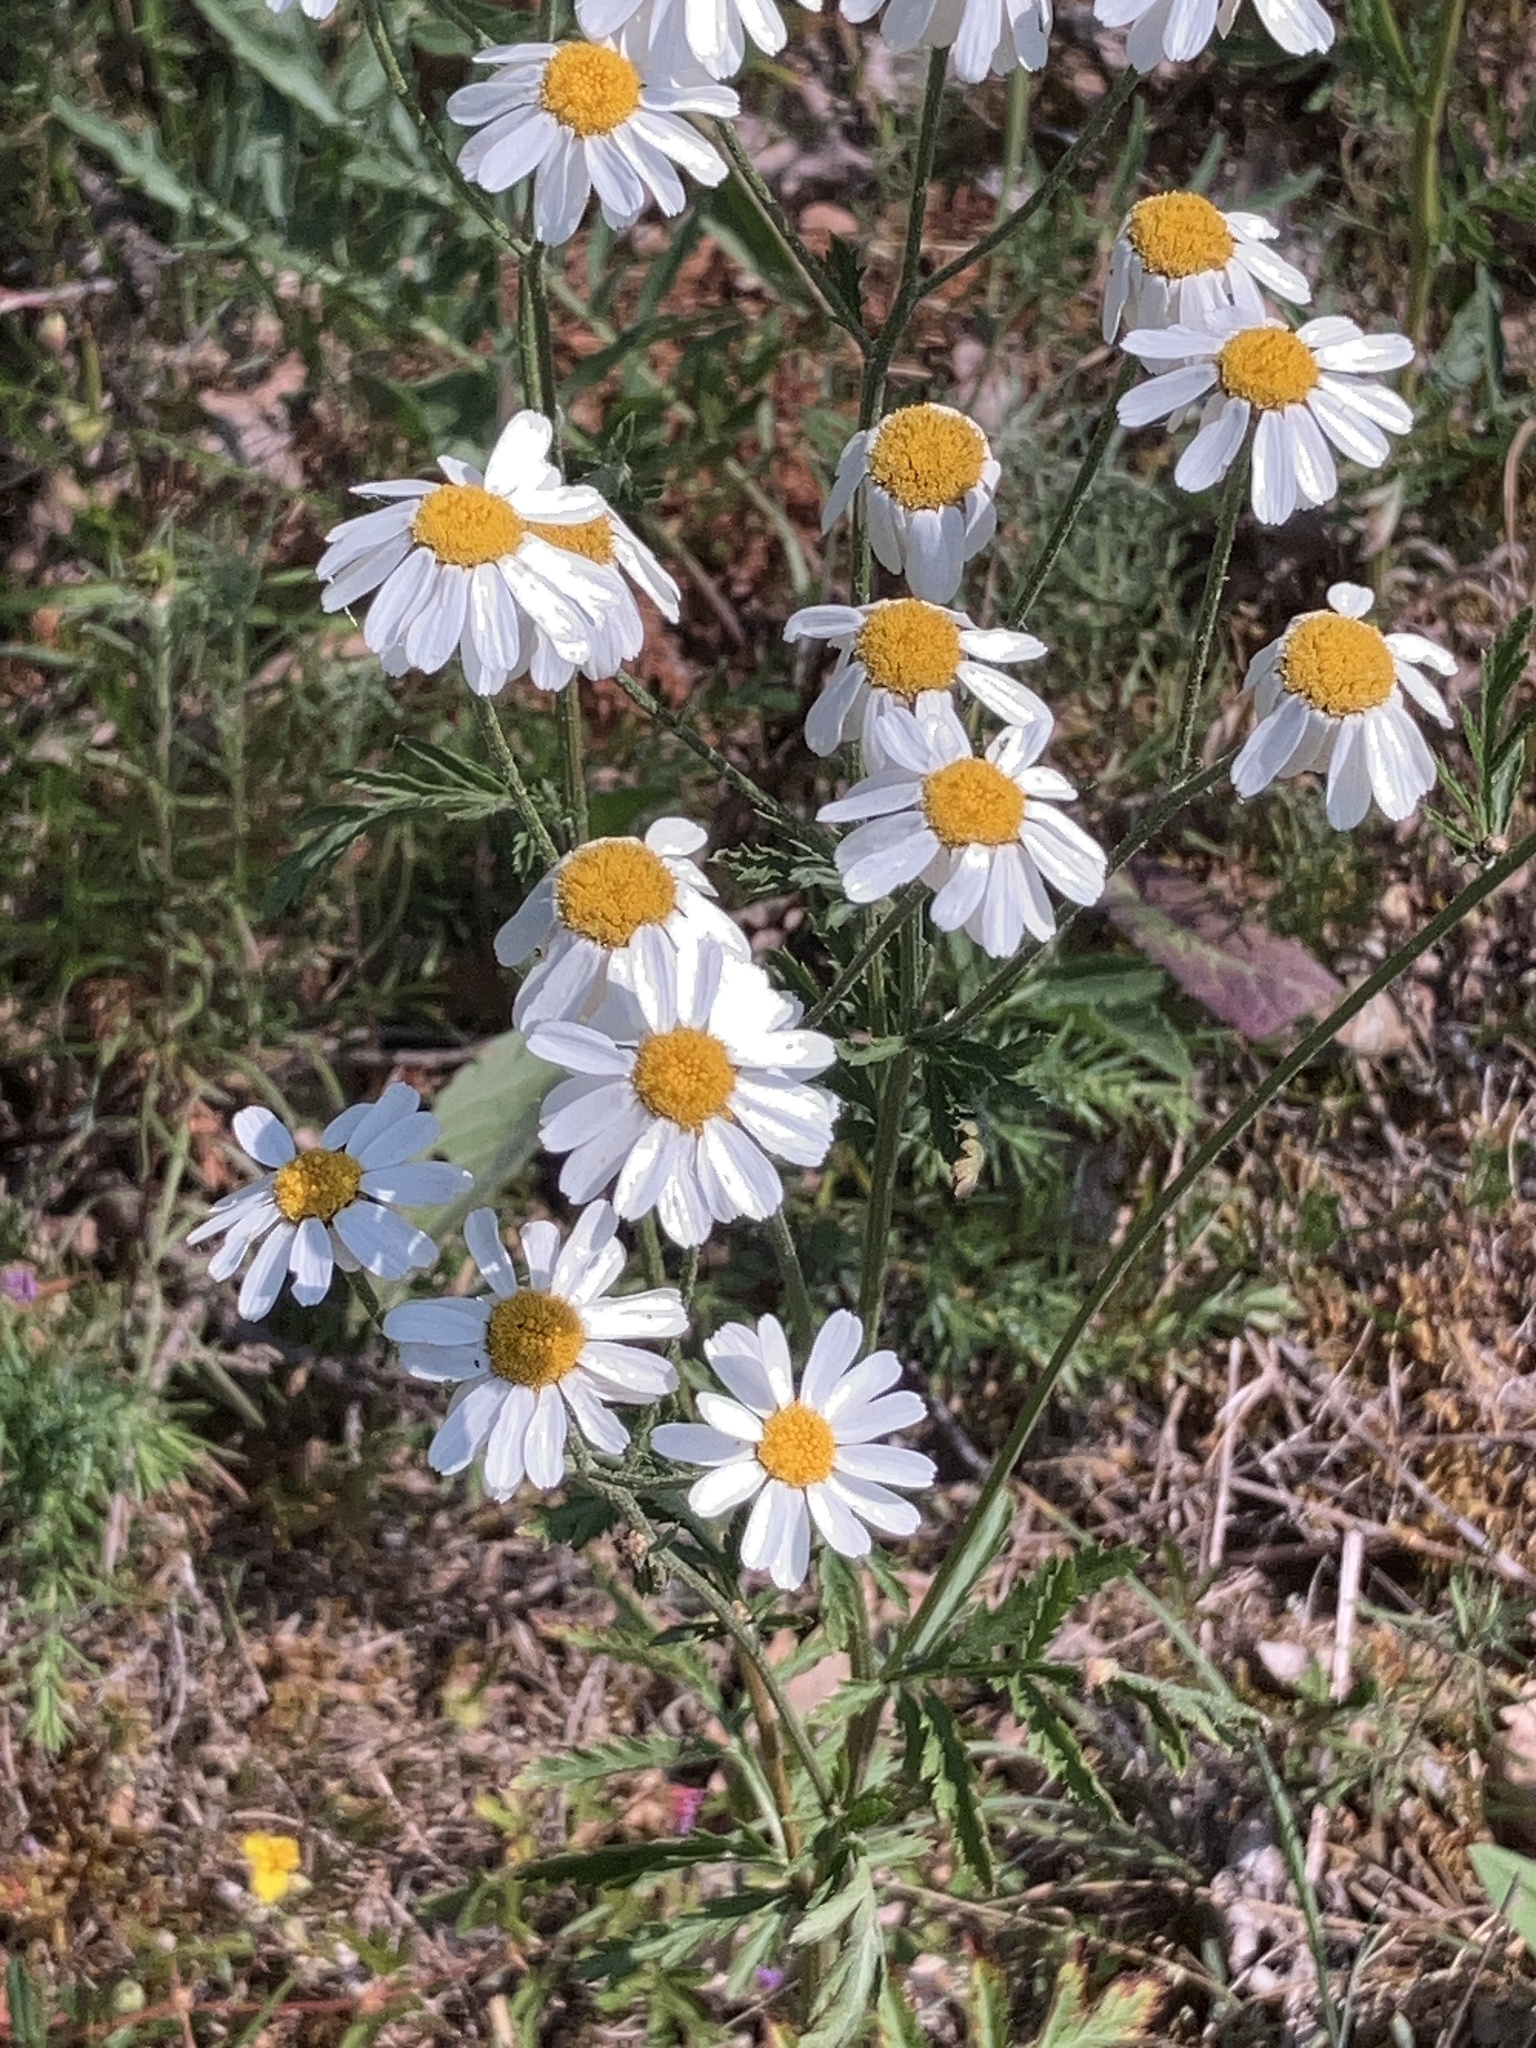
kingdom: Plantae
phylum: Tracheophyta
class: Magnoliopsida
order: Asterales
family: Asteraceae
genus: Tanacetum
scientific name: Tanacetum corymbosum
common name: Scentless feverfew
